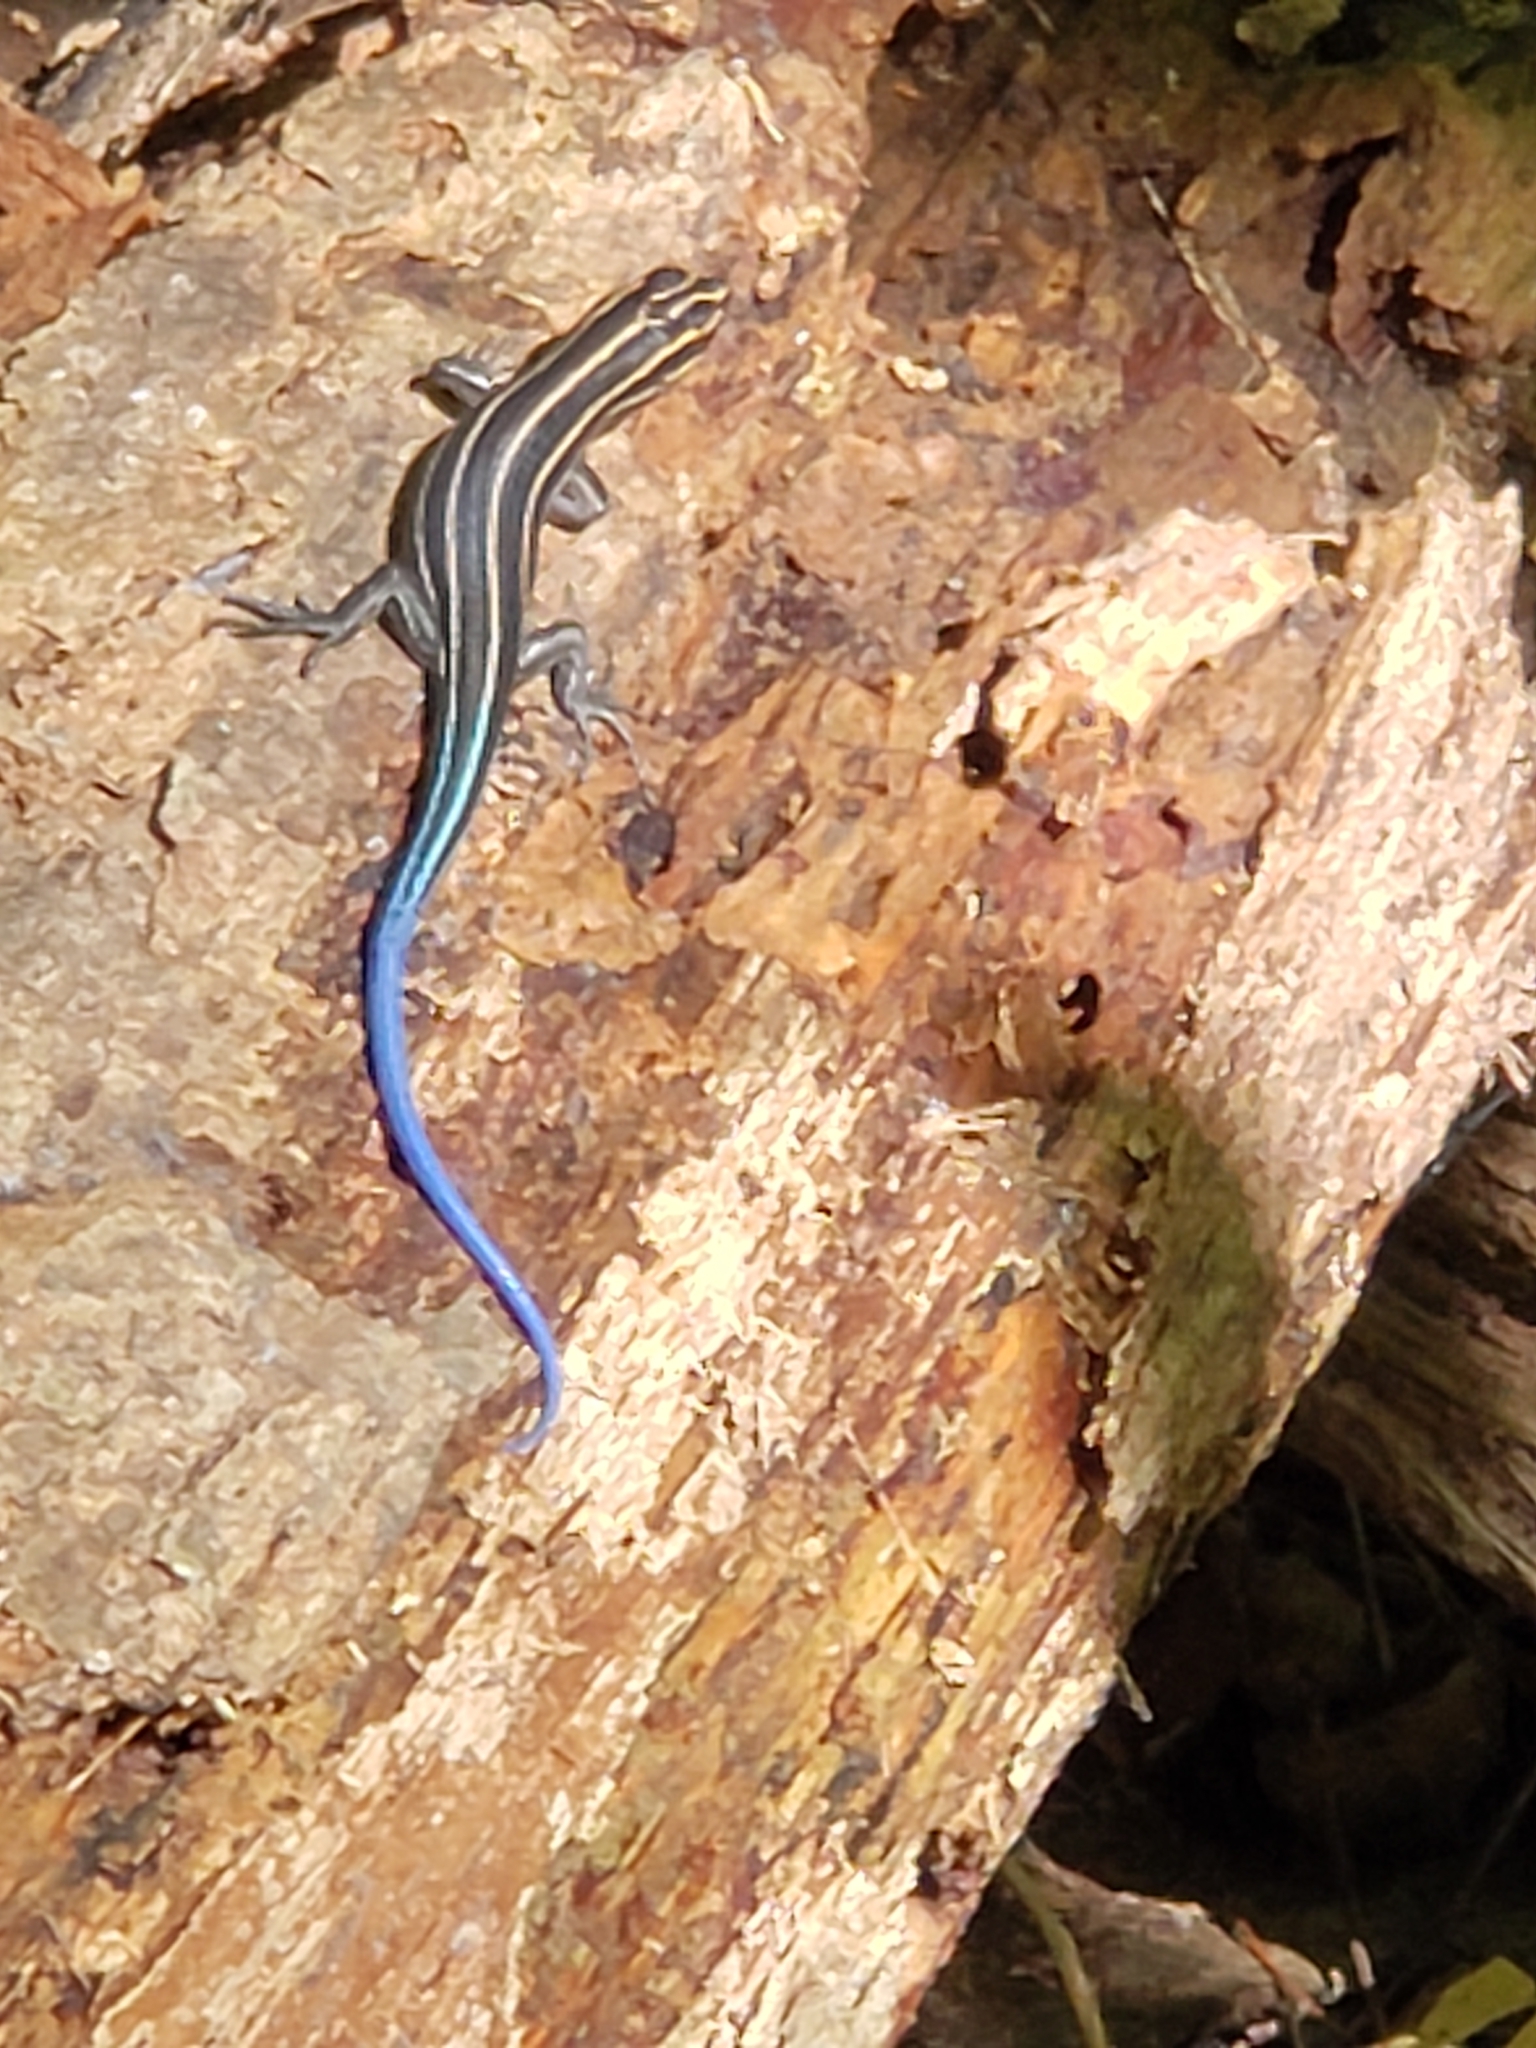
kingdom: Animalia
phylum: Chordata
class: Squamata
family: Scincidae
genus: Plestiodon
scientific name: Plestiodon laticeps
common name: Broadhead skink
